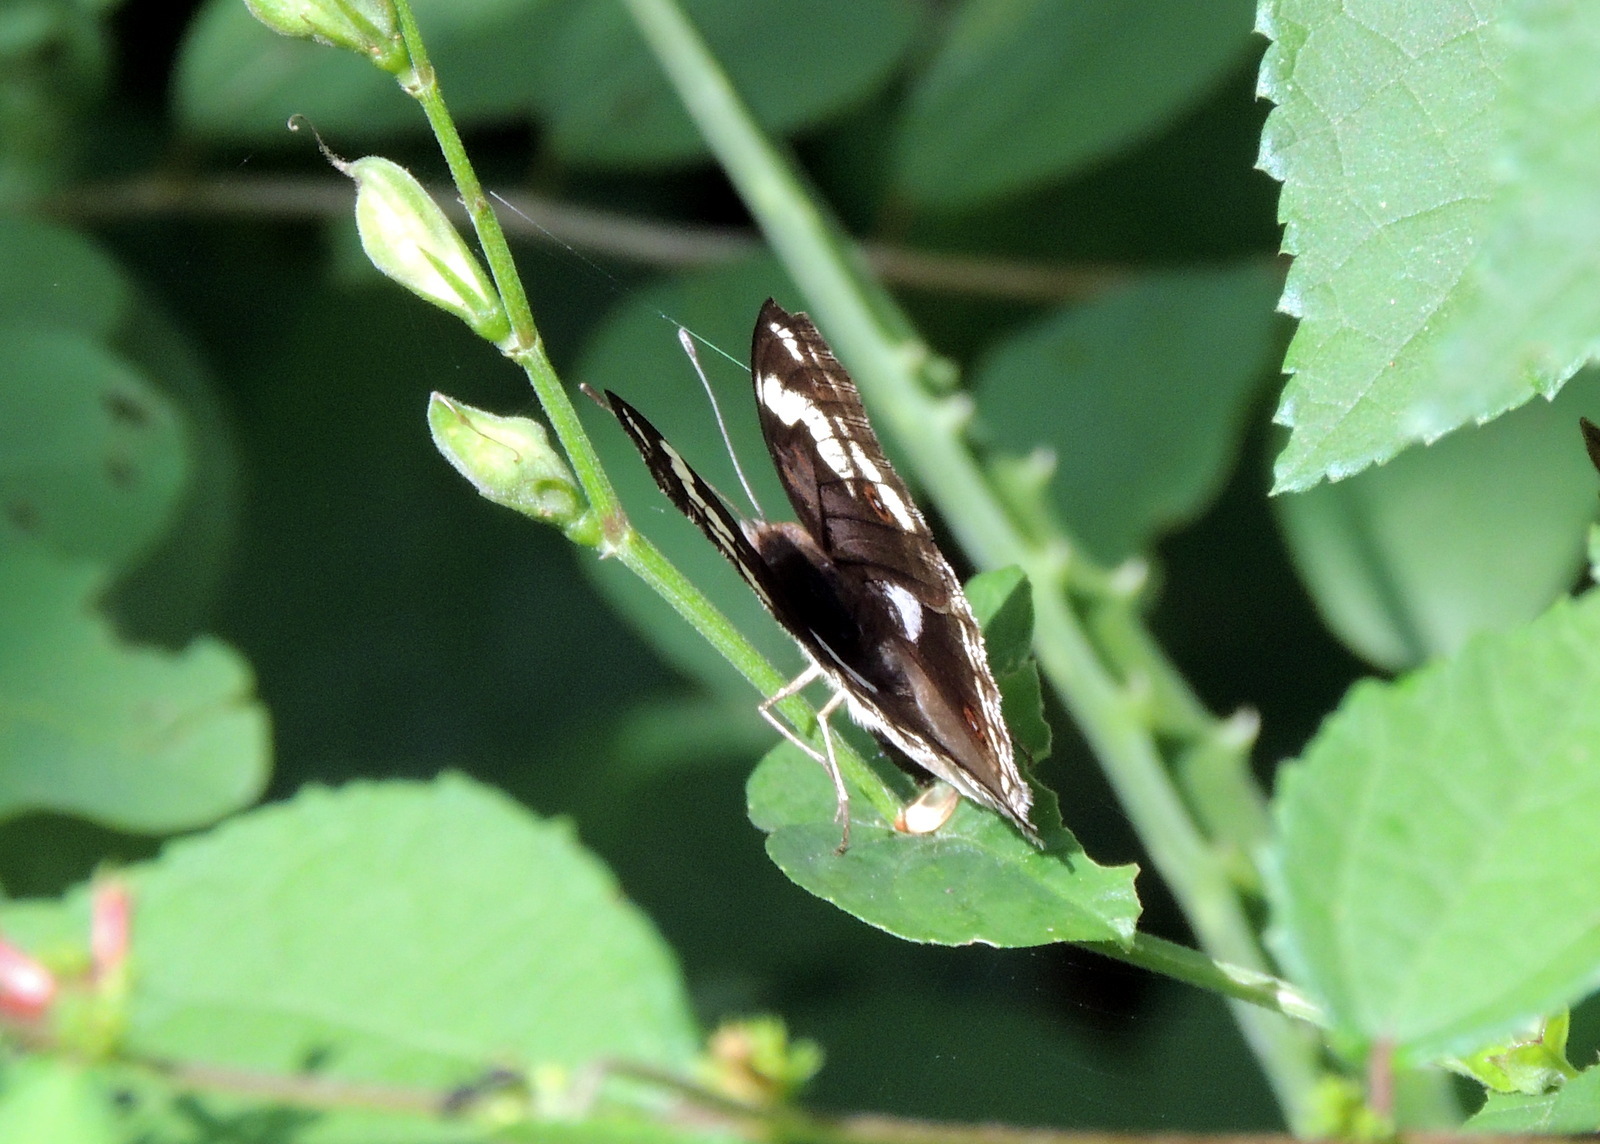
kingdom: Animalia
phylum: Arthropoda
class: Insecta
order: Lepidoptera
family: Nymphalidae
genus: Junonia
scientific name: Junonia oenone
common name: Dark blue pansy
